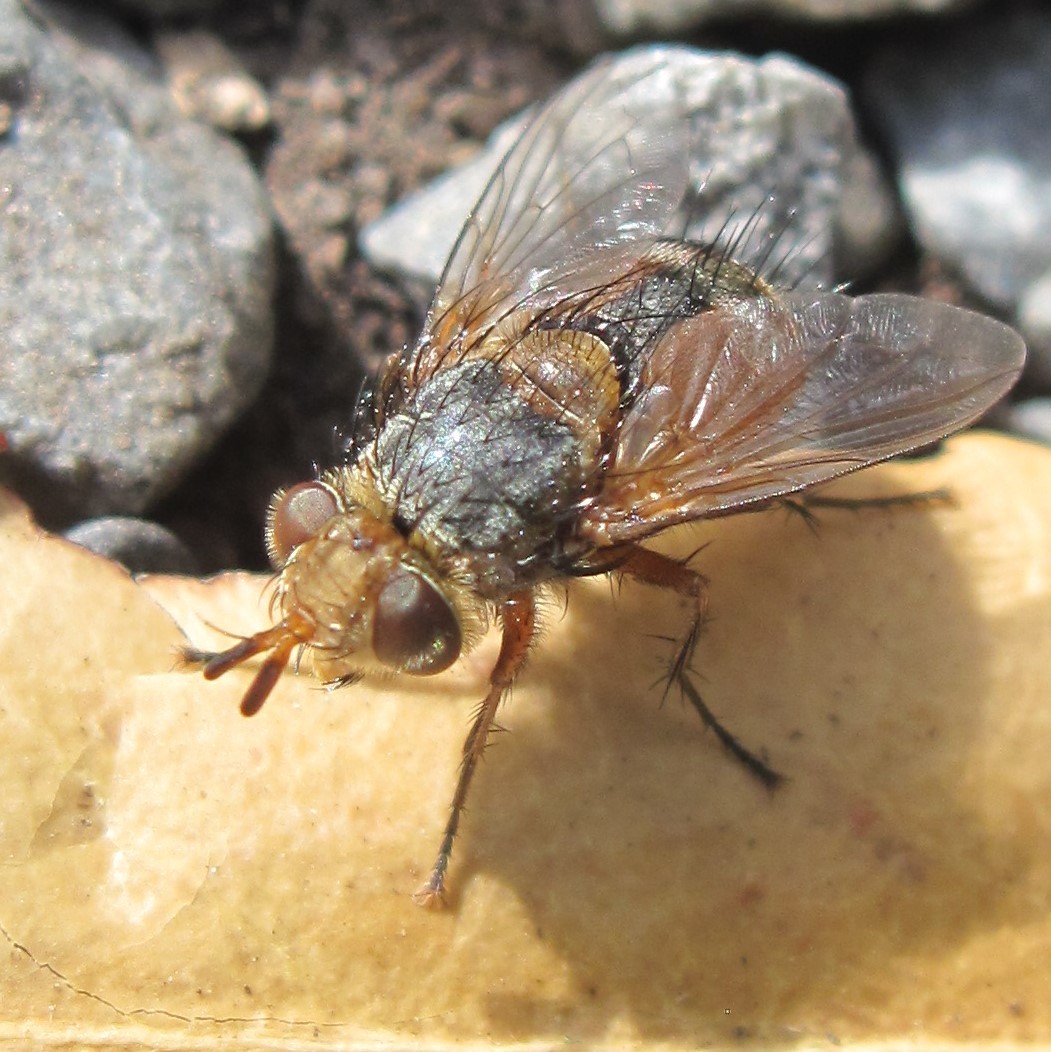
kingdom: Animalia
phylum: Arthropoda
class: Insecta
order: Diptera
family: Tachinidae
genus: Chaetophthalmus
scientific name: Chaetophthalmus bicolor
